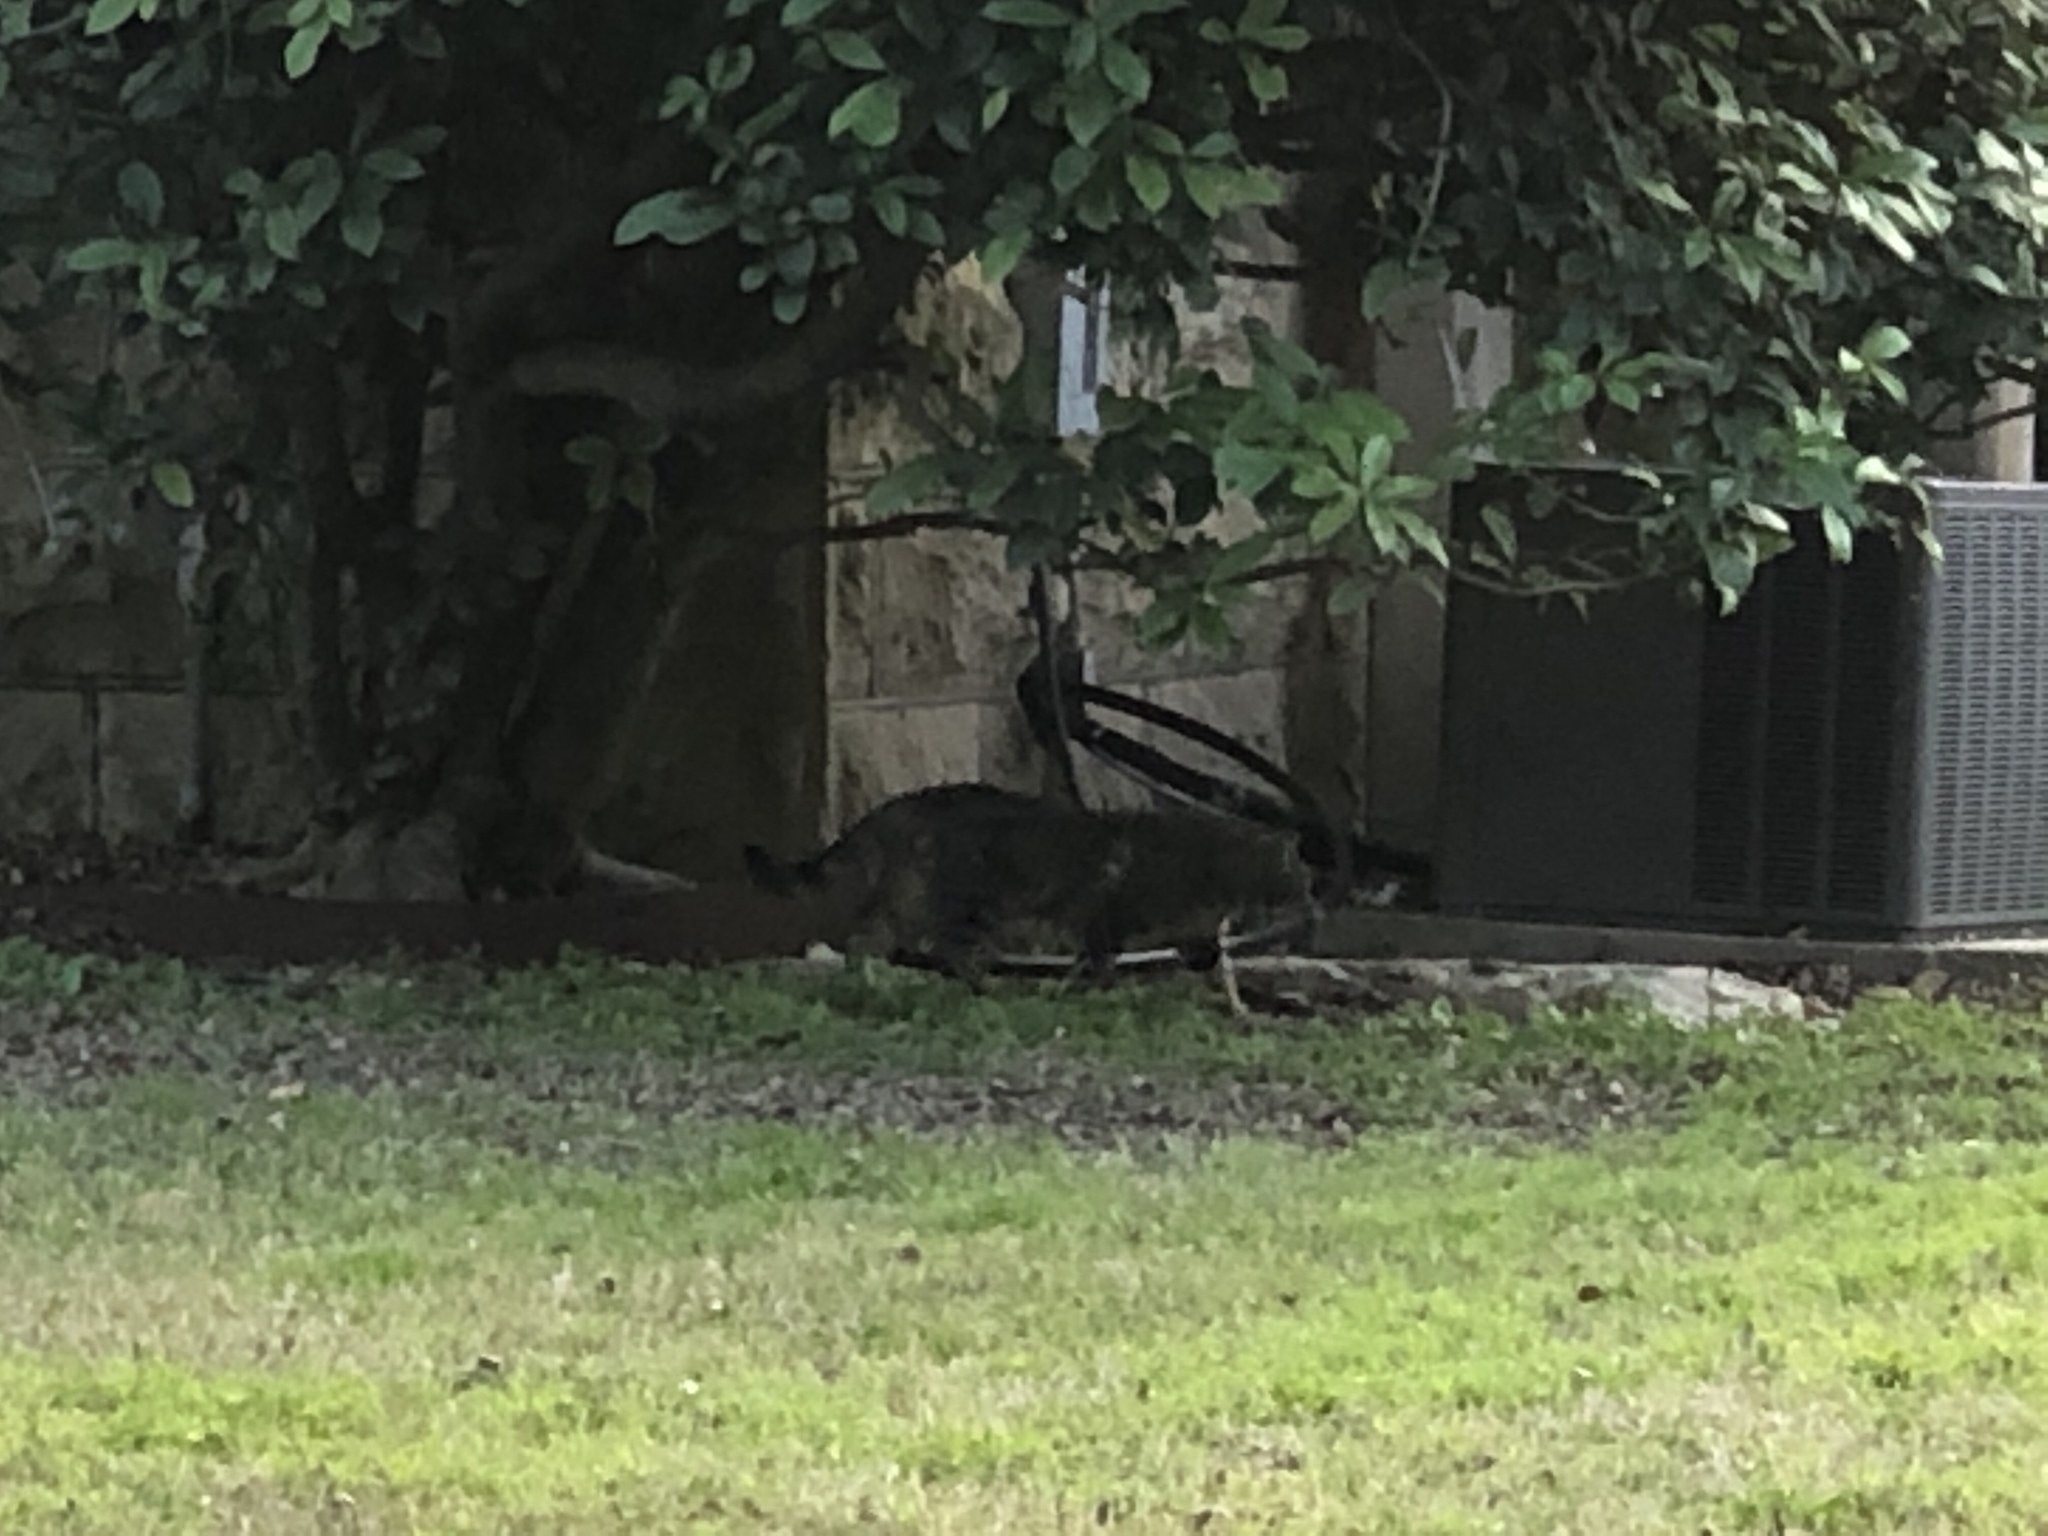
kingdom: Animalia
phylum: Chordata
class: Mammalia
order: Carnivora
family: Felidae
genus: Felis
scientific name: Felis catus
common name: Domestic cat
